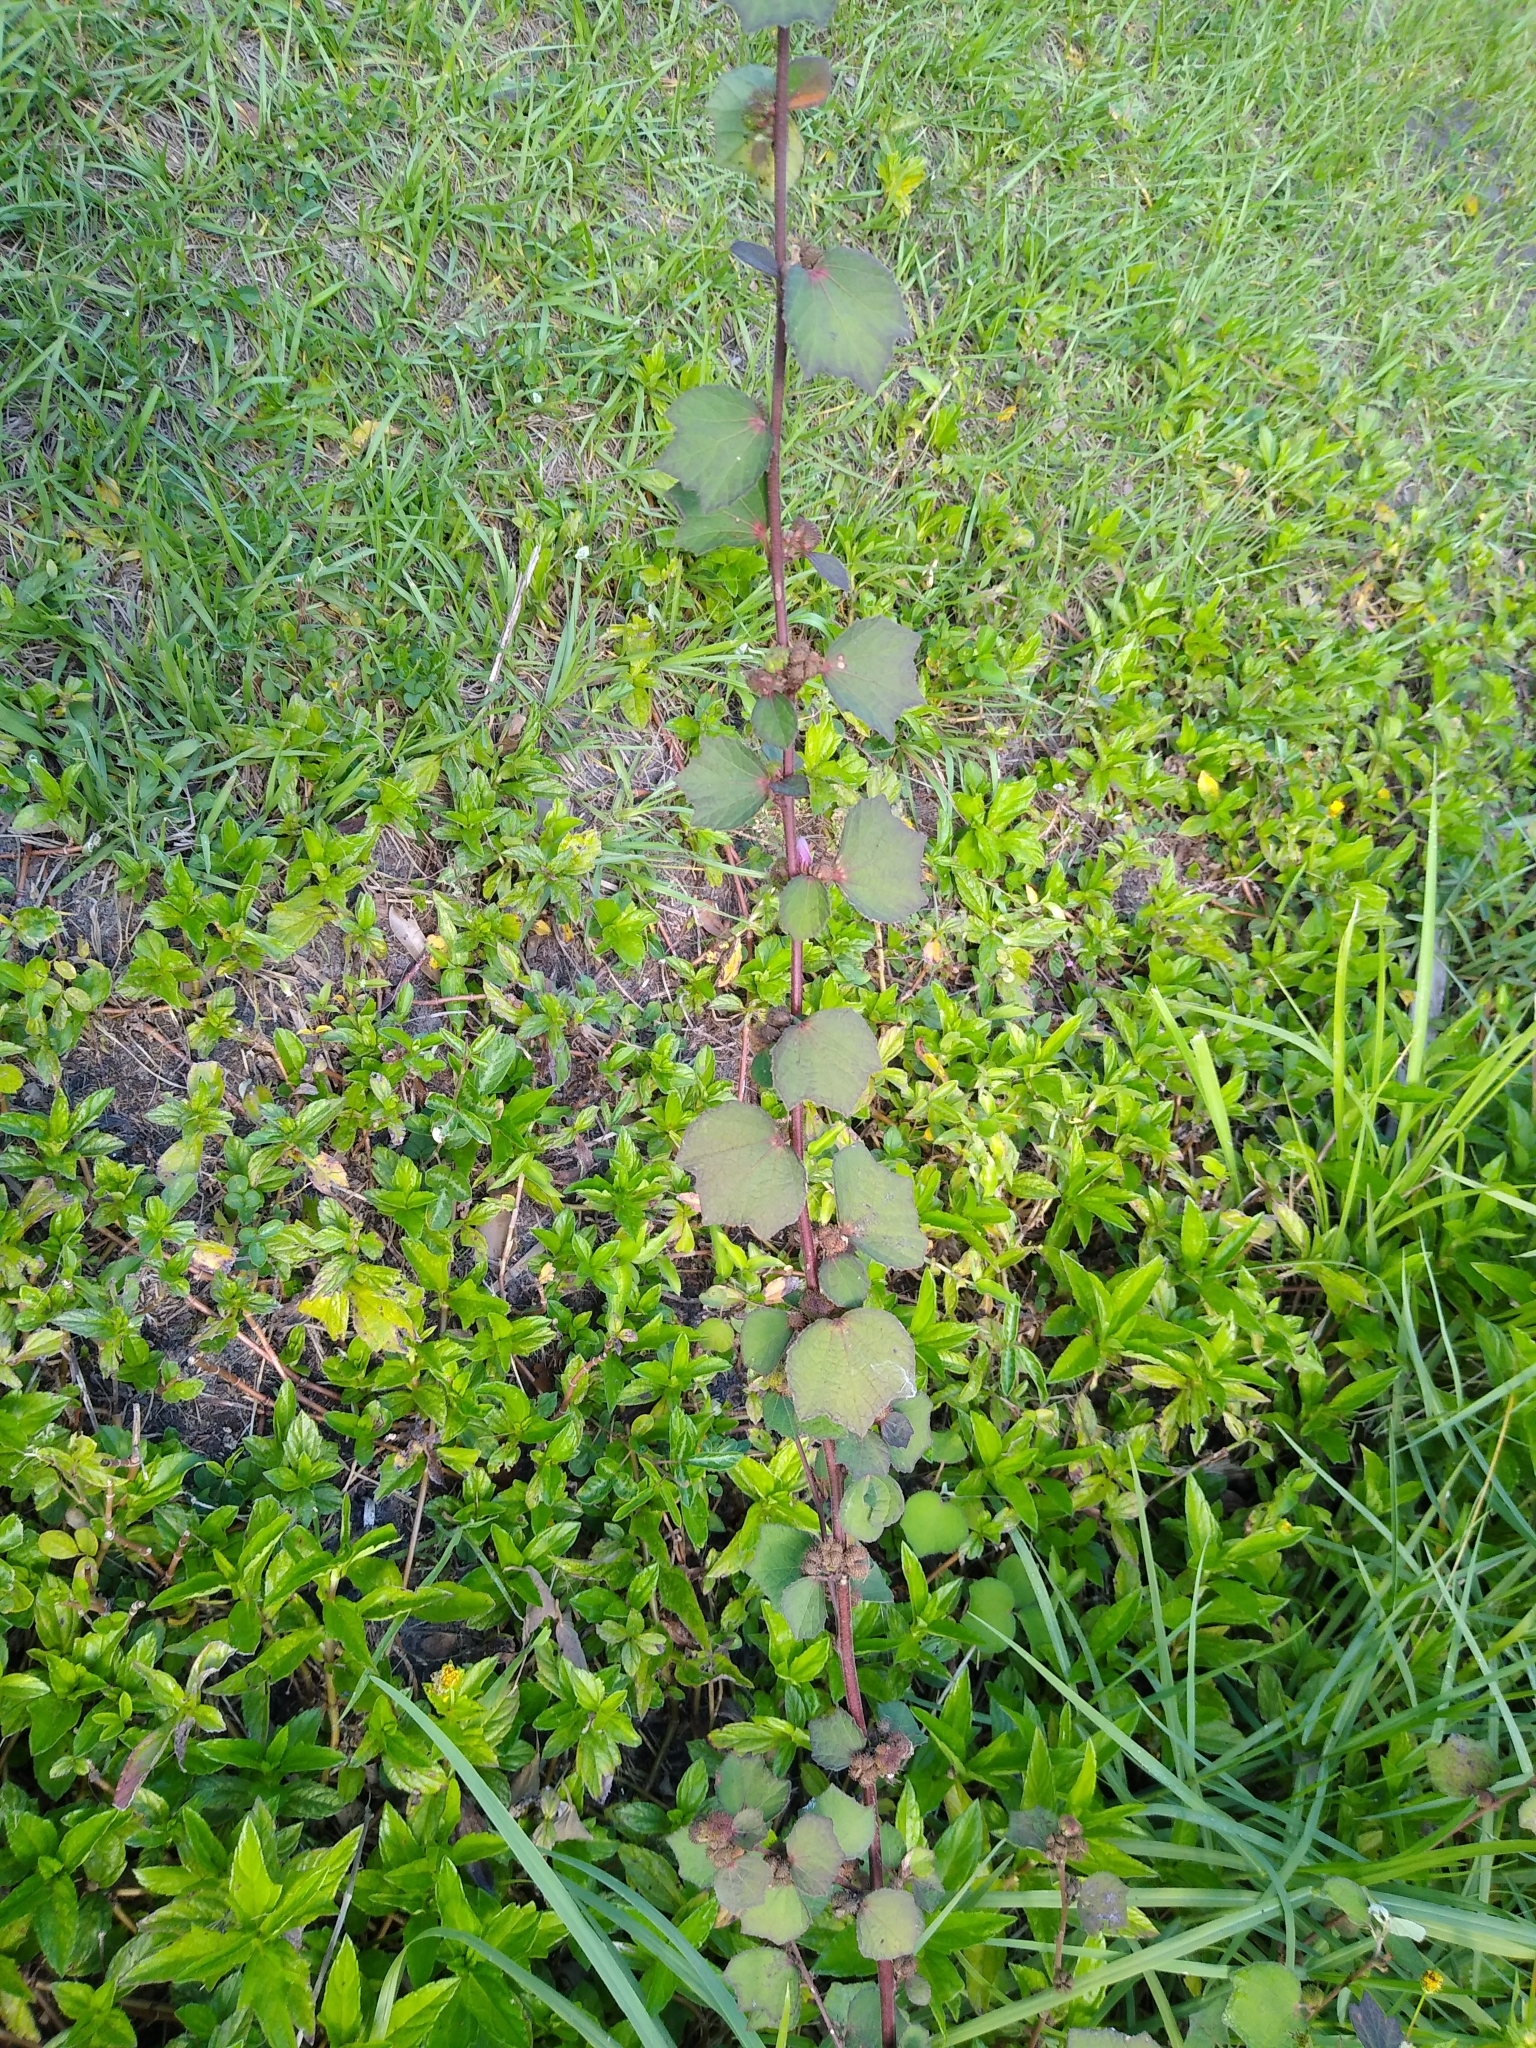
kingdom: Plantae
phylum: Tracheophyta
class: Magnoliopsida
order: Malvales
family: Malvaceae
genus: Urena
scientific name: Urena lobata
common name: Caesarweed
